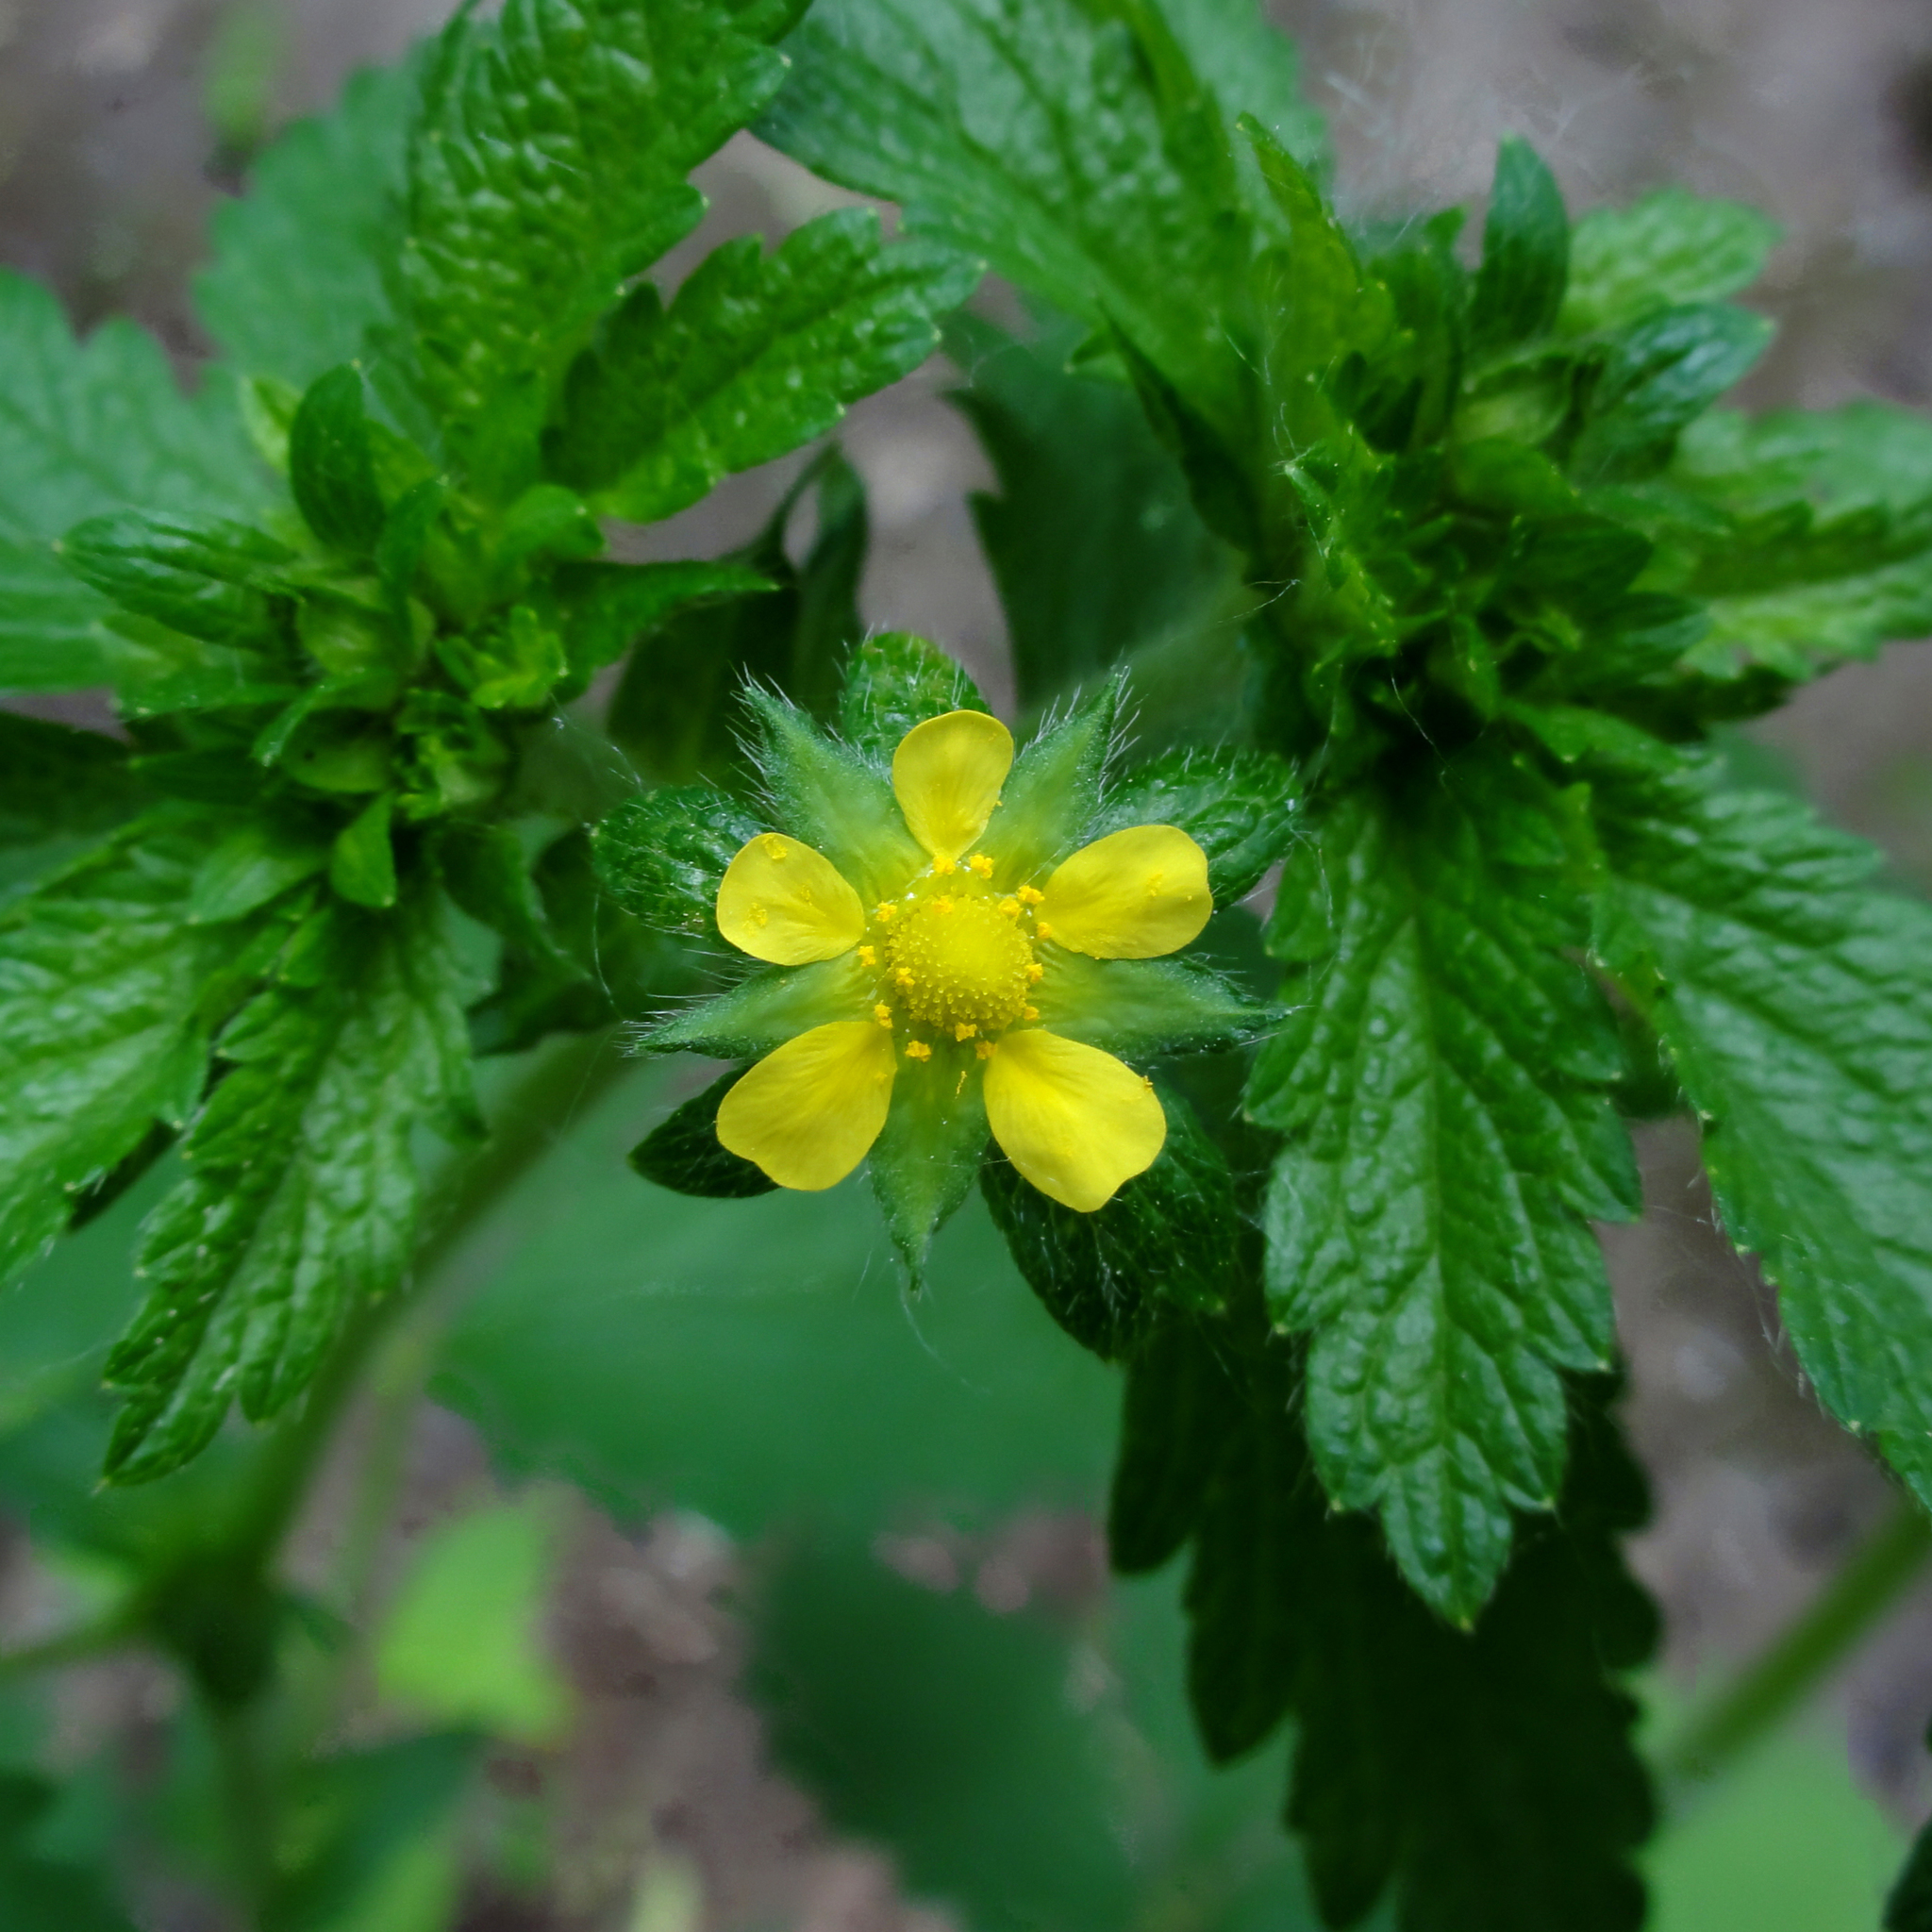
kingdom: Plantae
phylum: Tracheophyta
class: Magnoliopsida
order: Rosales
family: Rosaceae
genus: Potentilla
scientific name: Potentilla norvegica
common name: Ternate-leaved cinquefoil
